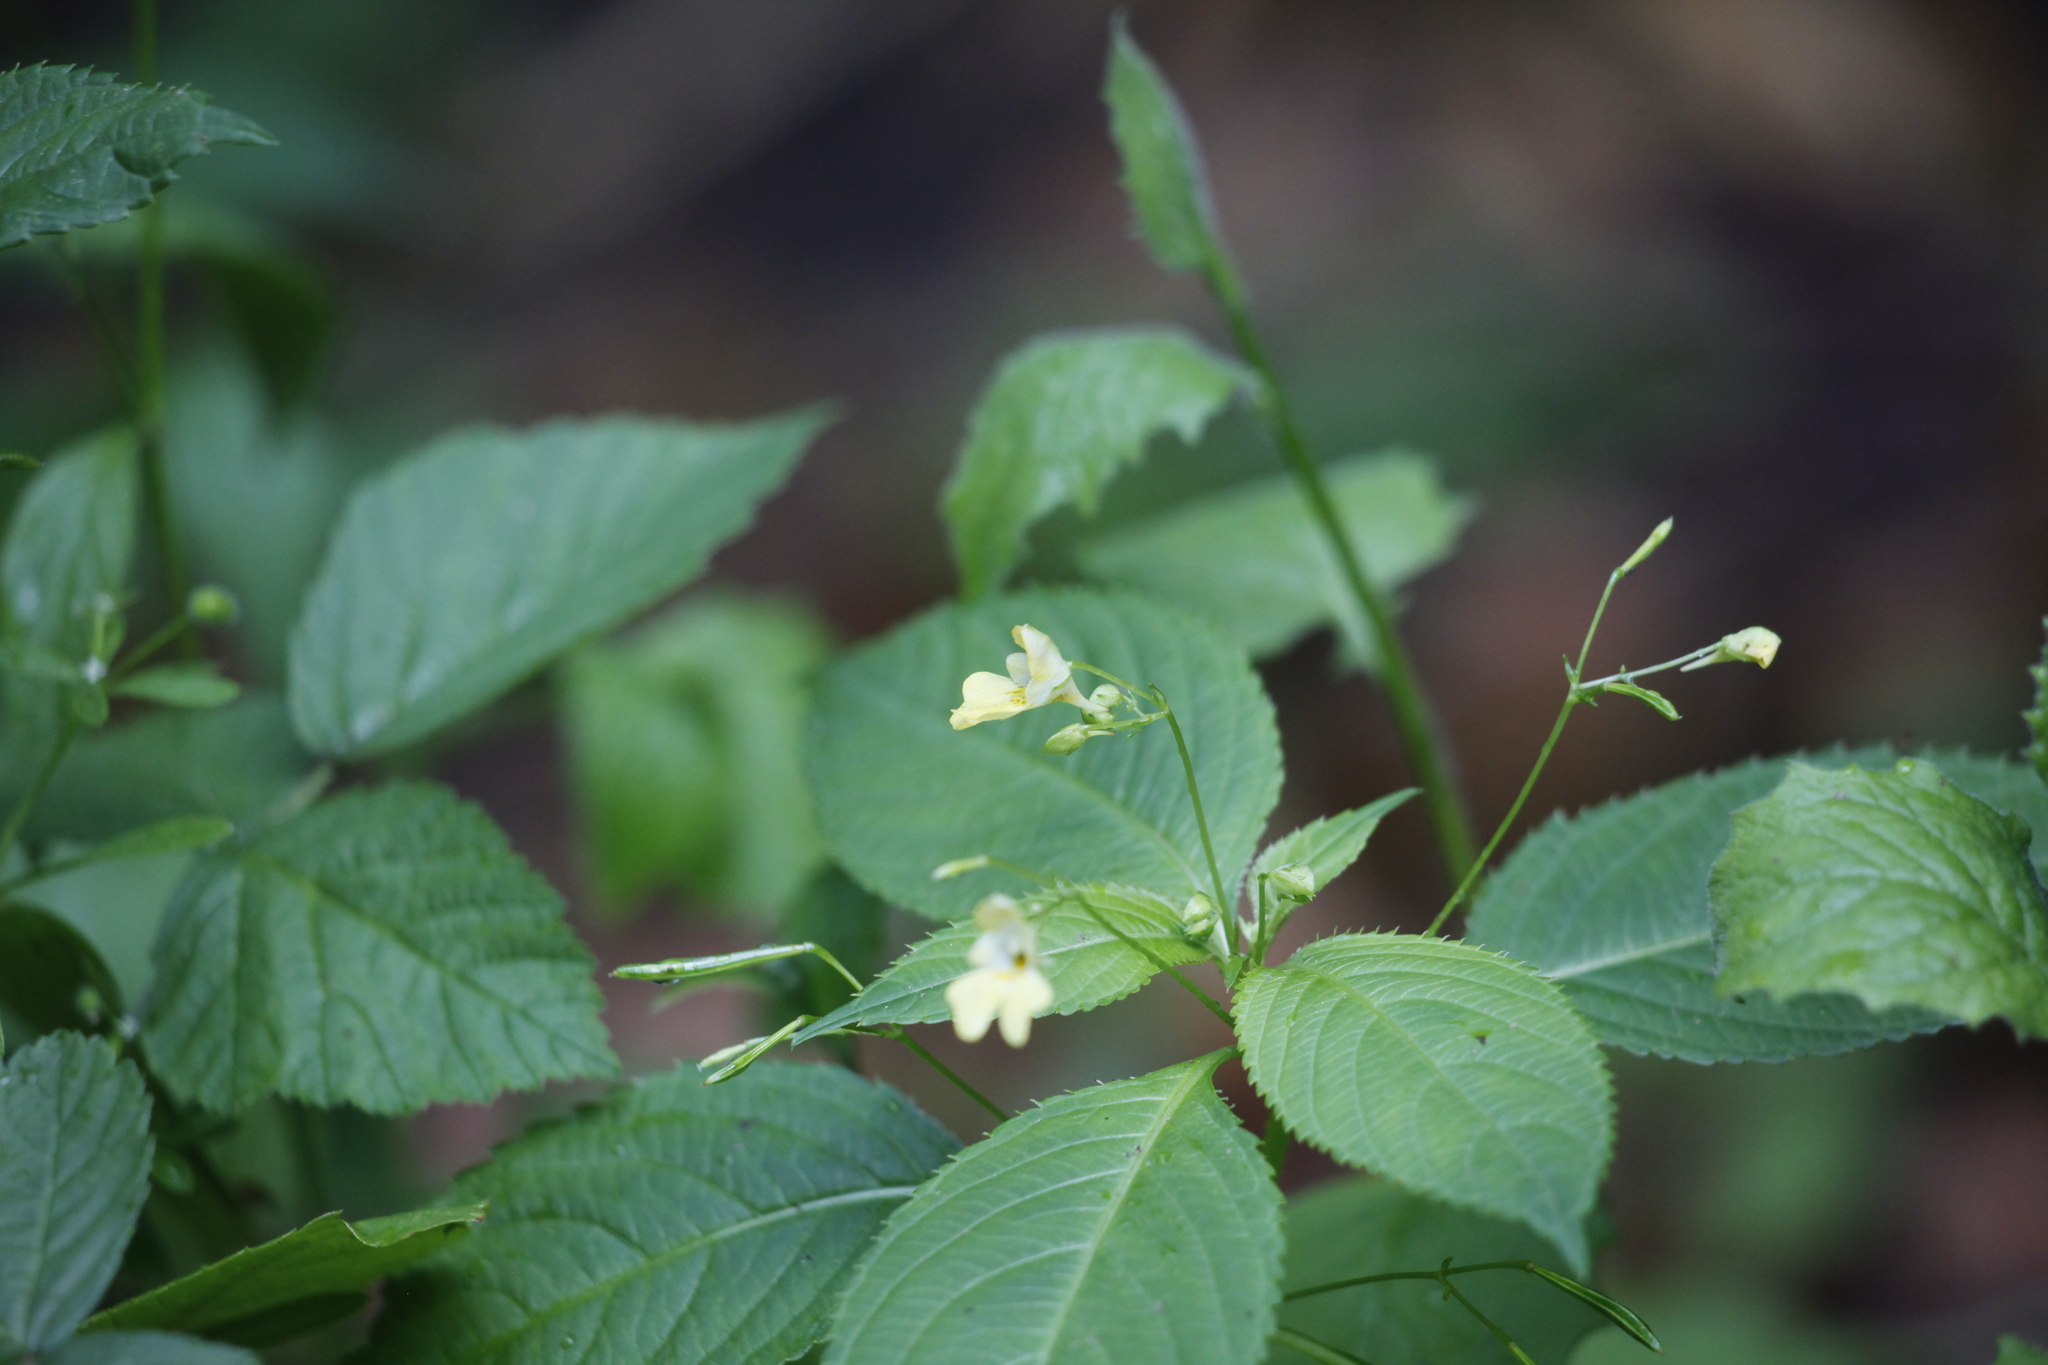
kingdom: Plantae
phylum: Tracheophyta
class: Magnoliopsida
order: Ericales
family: Balsaminaceae
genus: Impatiens
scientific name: Impatiens parviflora
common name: Small balsam
